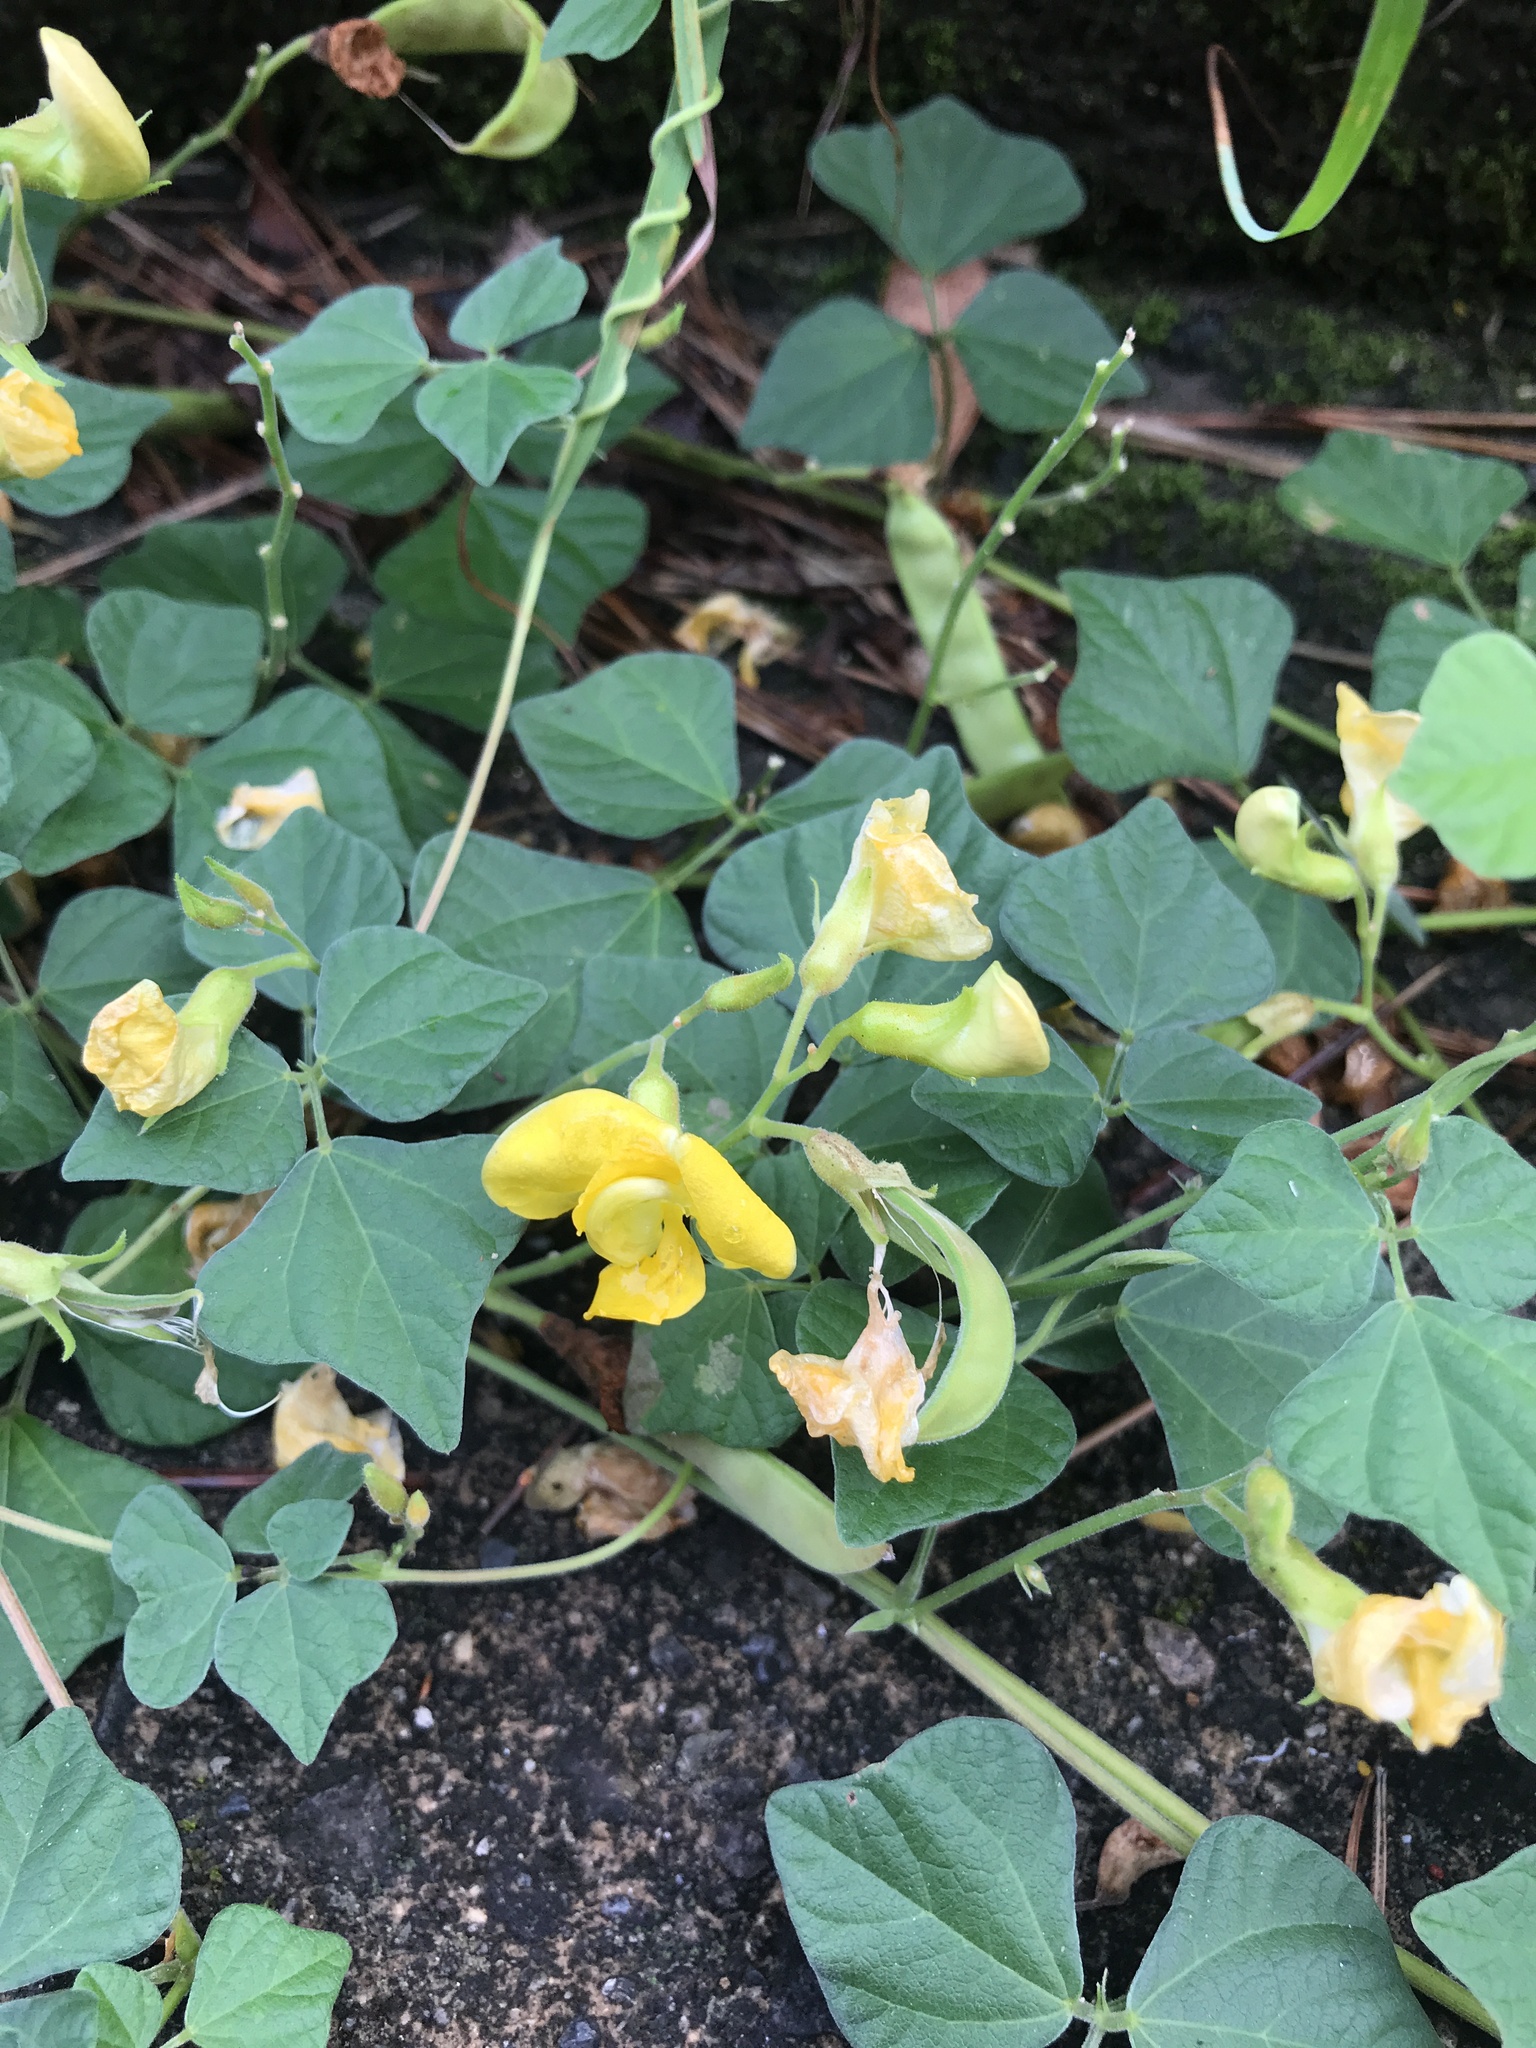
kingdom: Plantae
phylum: Tracheophyta
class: Magnoliopsida
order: Fabales
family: Fabaceae
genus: Dunbaria
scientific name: Dunbaria villosa
